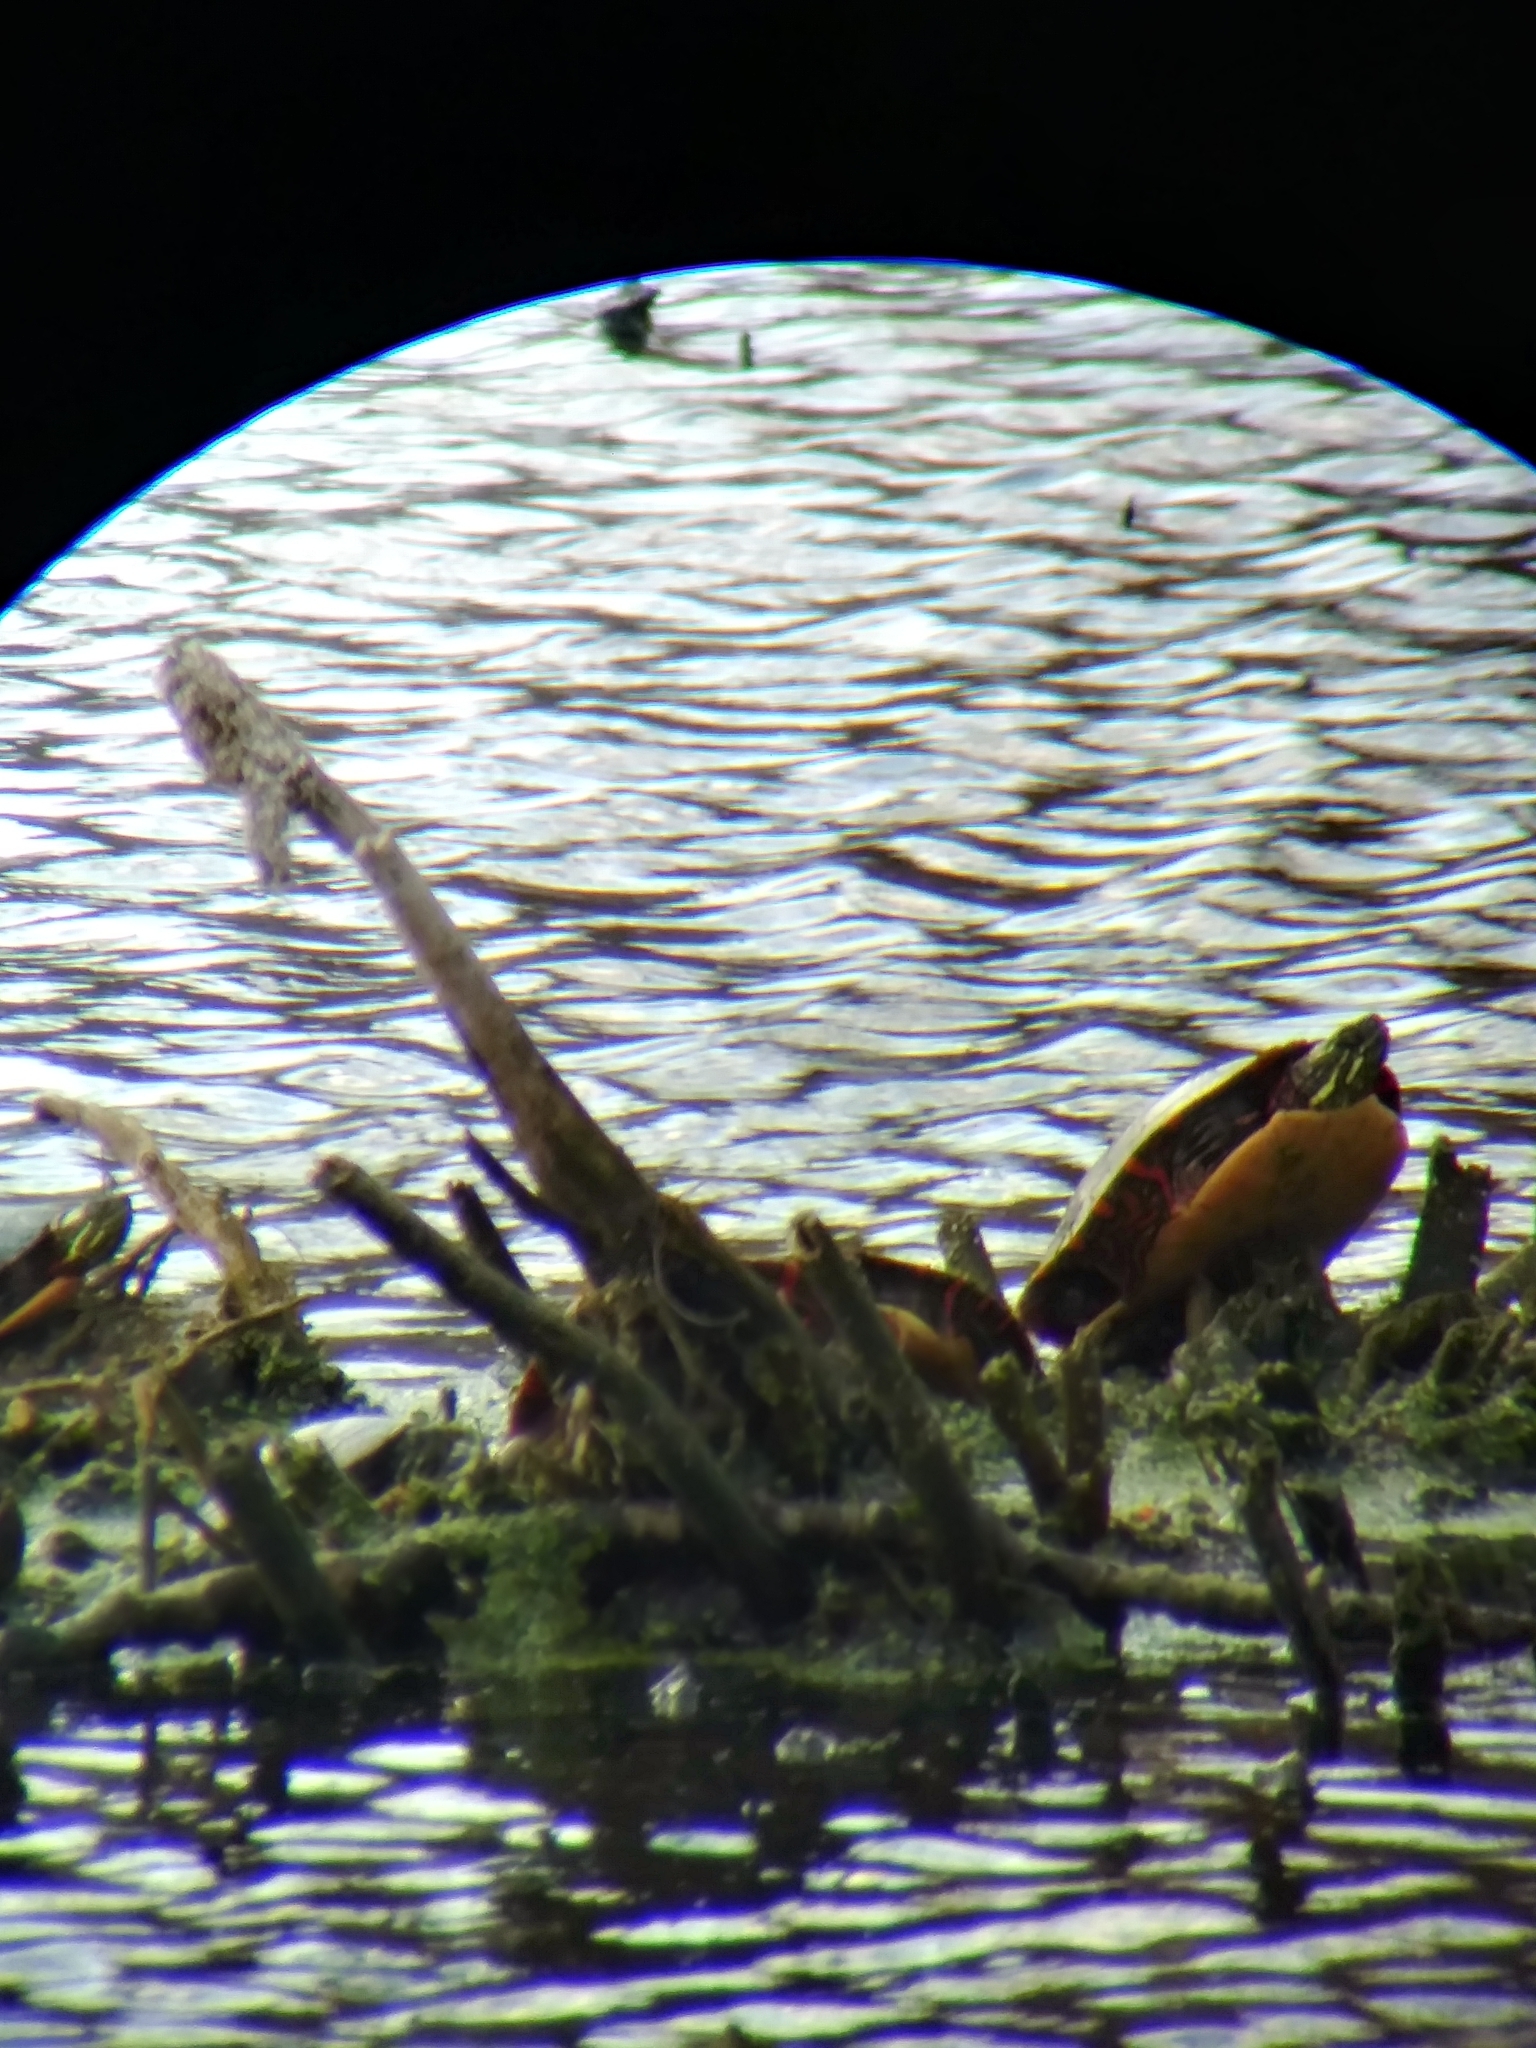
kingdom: Animalia
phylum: Chordata
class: Testudines
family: Emydidae
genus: Chrysemys
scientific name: Chrysemys picta
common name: Painted turtle
